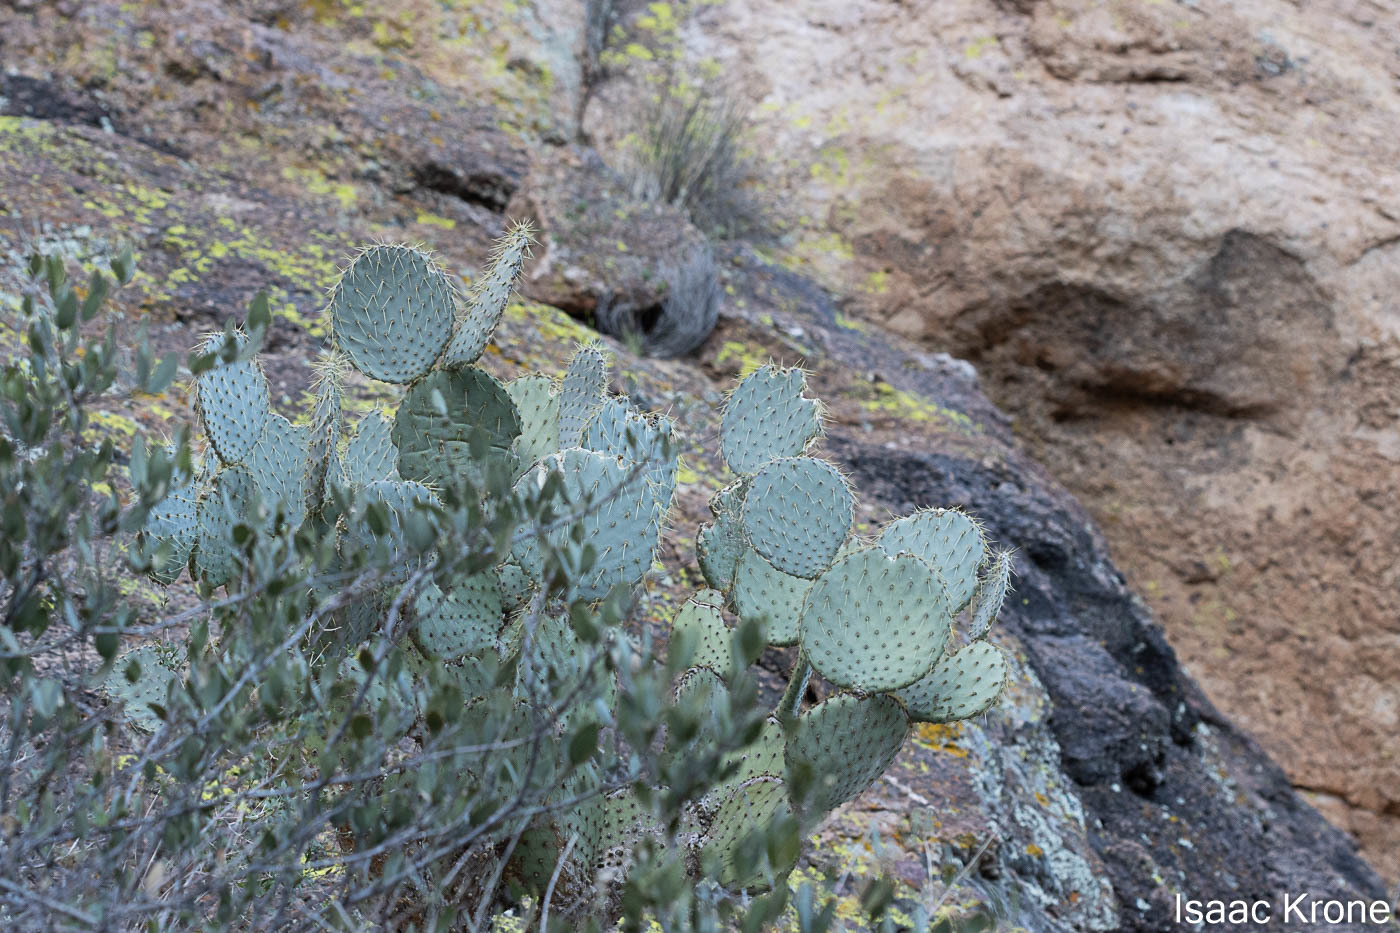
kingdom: Plantae
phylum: Tracheophyta
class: Magnoliopsida
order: Caryophyllales
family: Cactaceae
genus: Opuntia
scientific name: Opuntia chlorotica
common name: Dollar-joint prickly-pear
